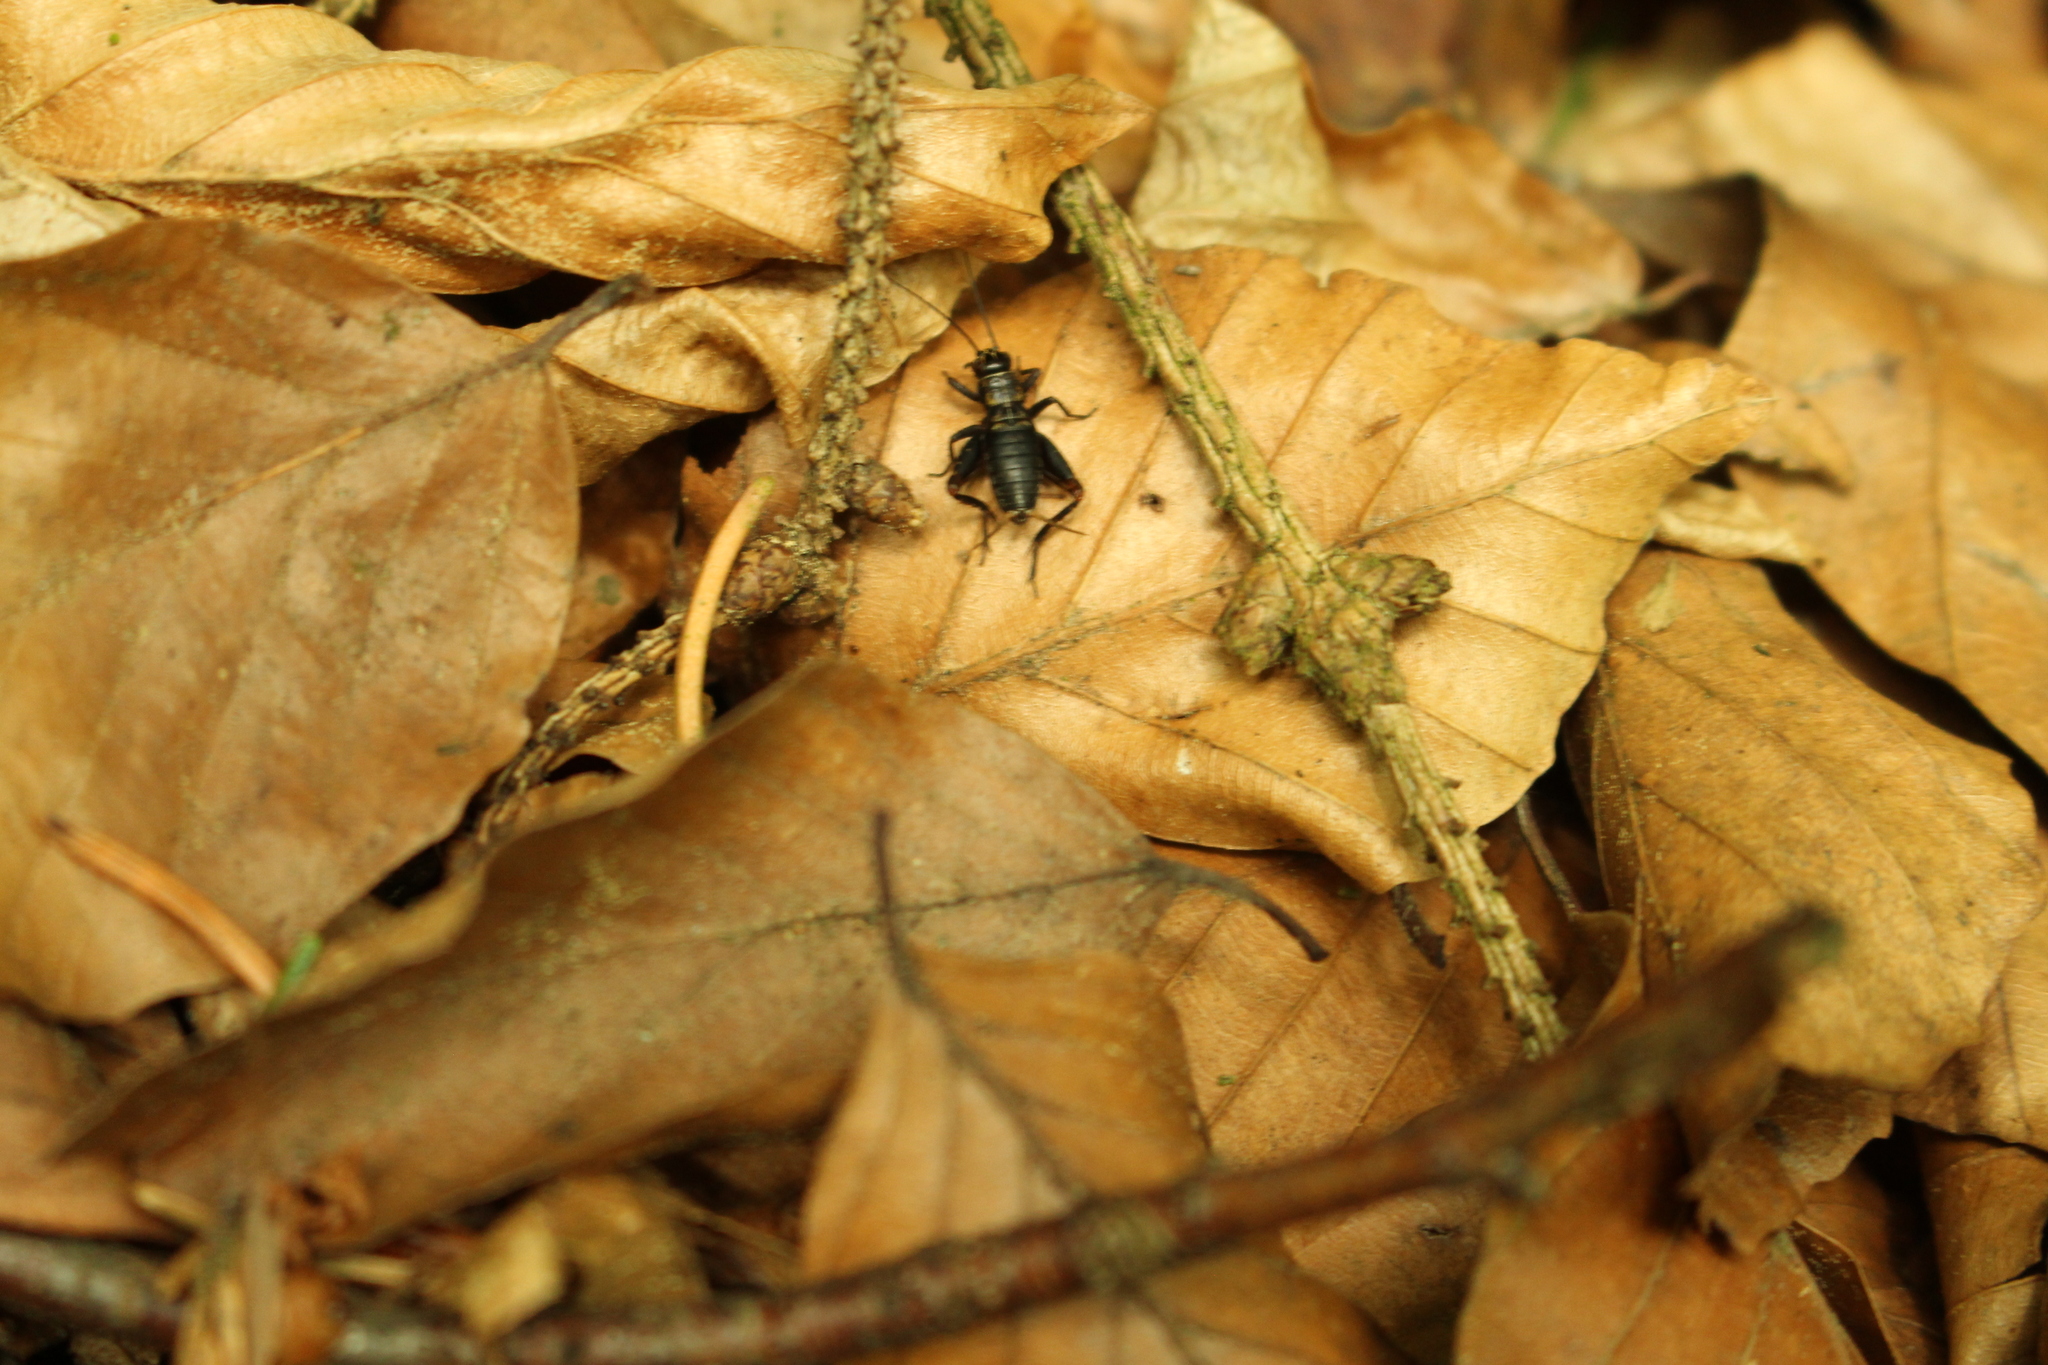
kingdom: Animalia
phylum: Arthropoda
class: Insecta
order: Orthoptera
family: Trigonidiidae
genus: Nemobius
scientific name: Nemobius sylvestris
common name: Wood-cricket
